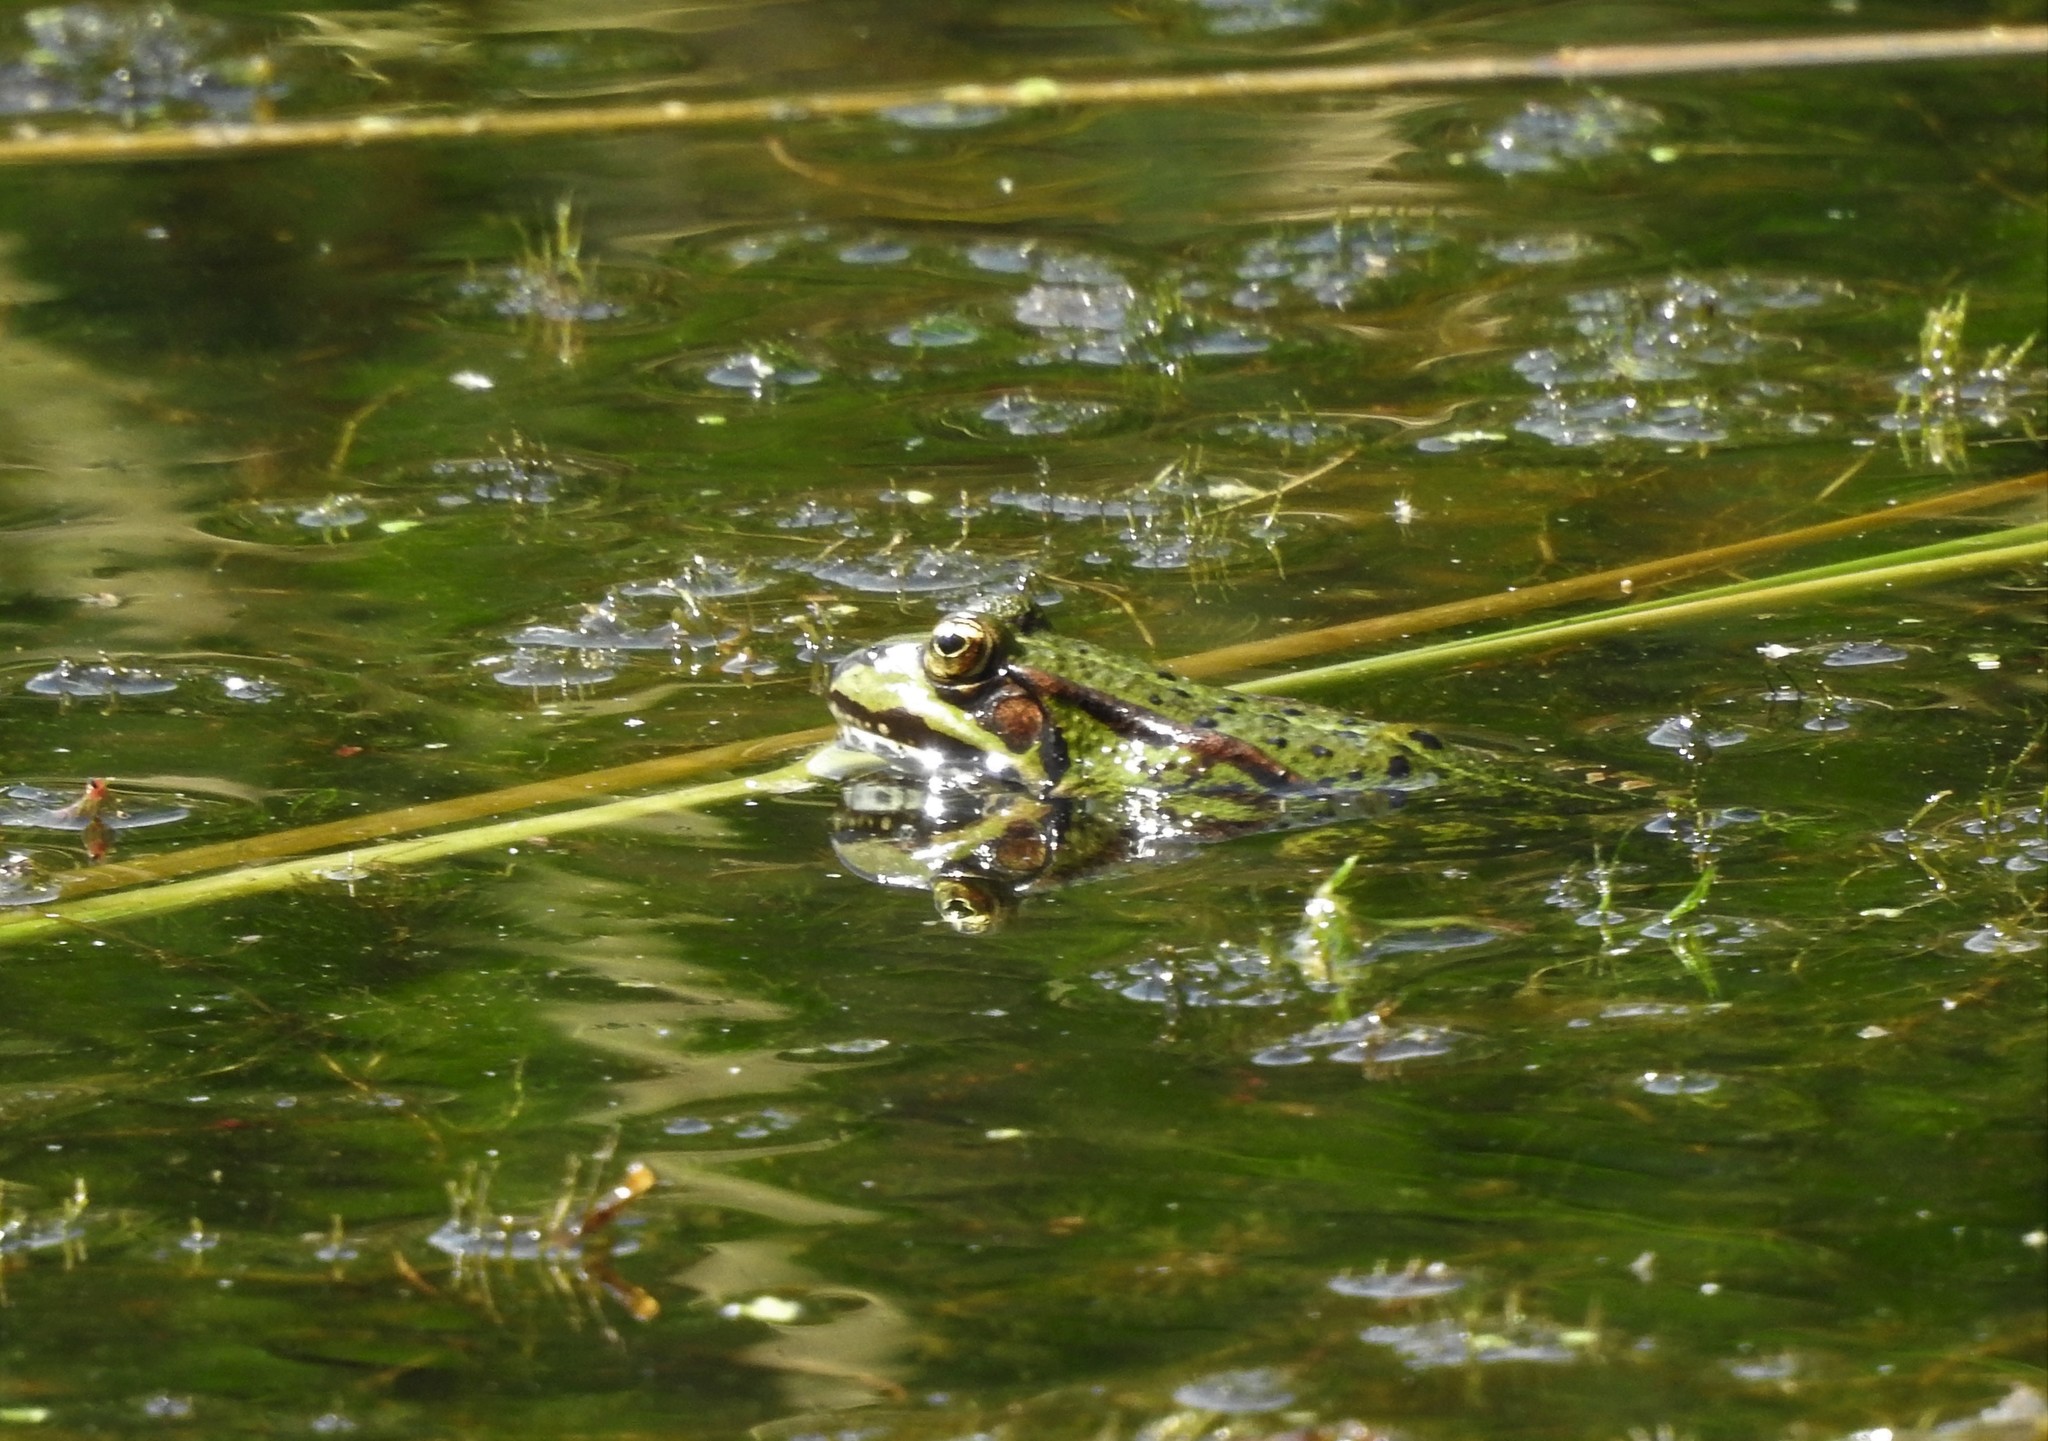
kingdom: Animalia
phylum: Chordata
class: Amphibia
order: Anura
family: Ranidae
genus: Pelophylax
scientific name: Pelophylax lessonae
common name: Pool frog
